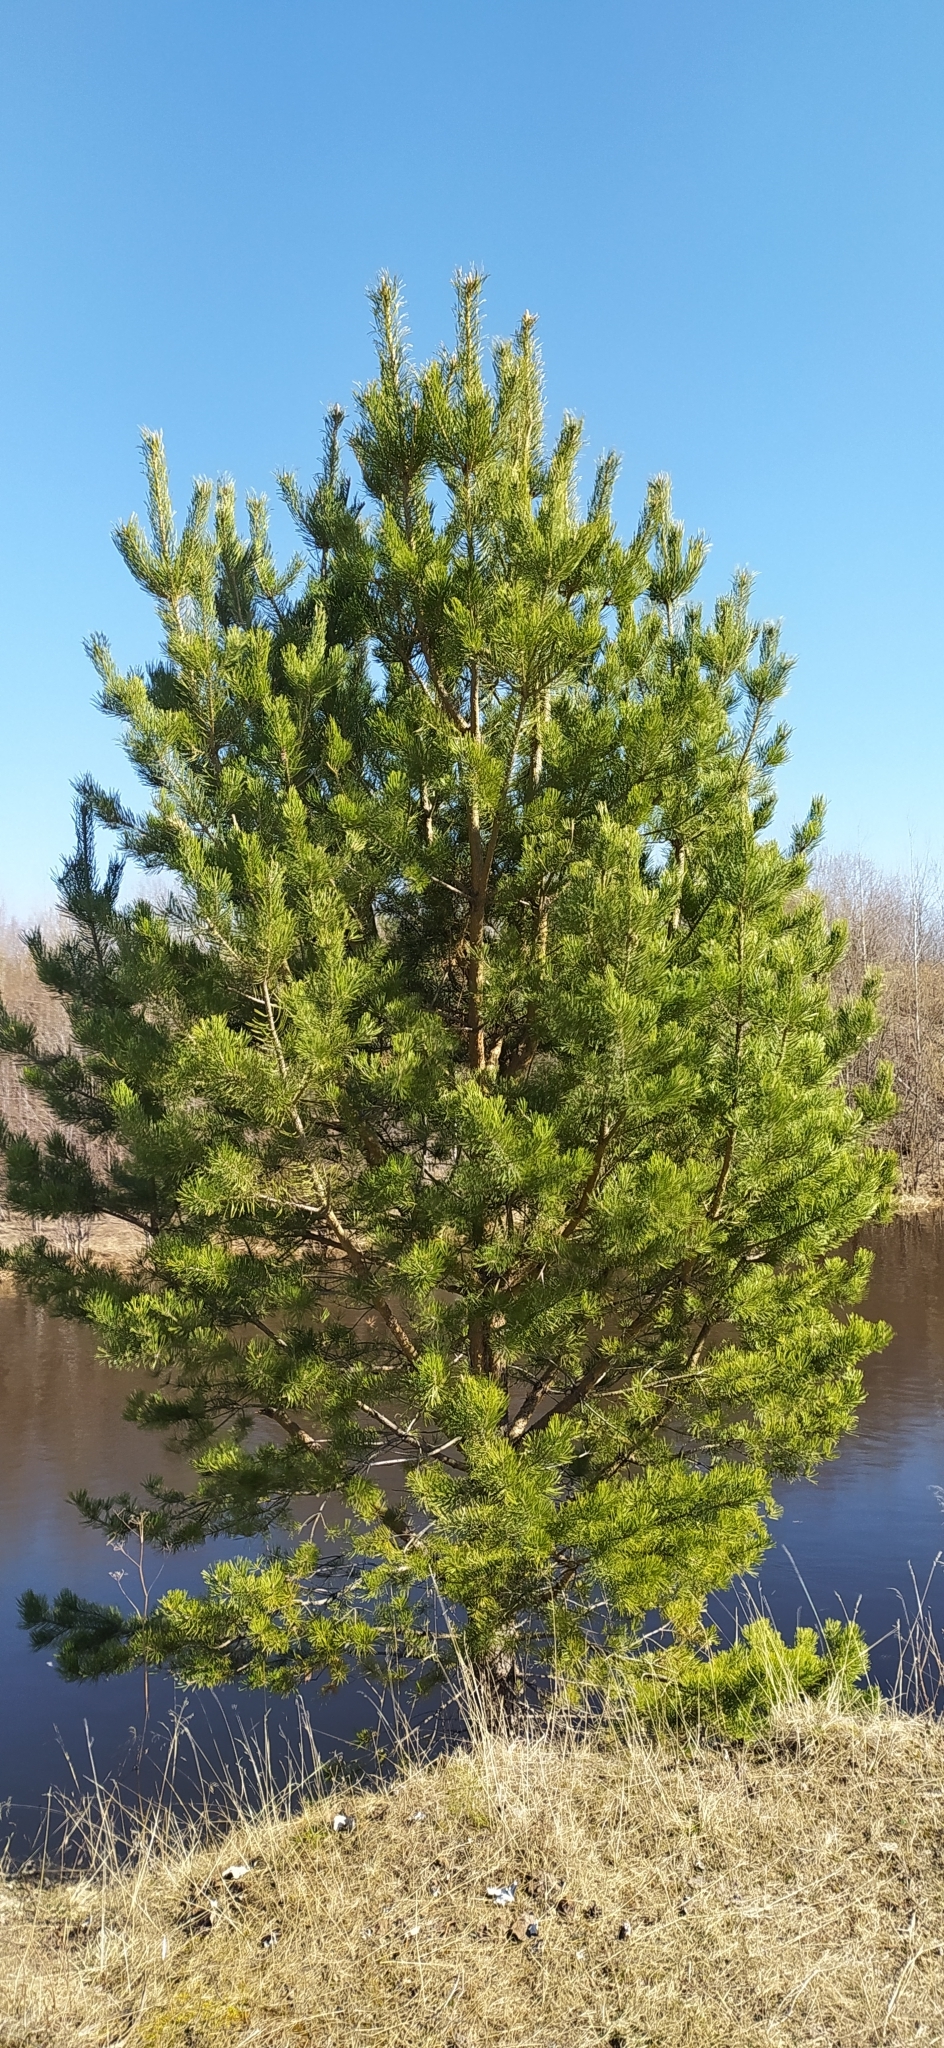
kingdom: Plantae
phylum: Tracheophyta
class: Pinopsida
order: Pinales
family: Pinaceae
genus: Pinus
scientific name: Pinus sylvestris
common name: Scots pine
